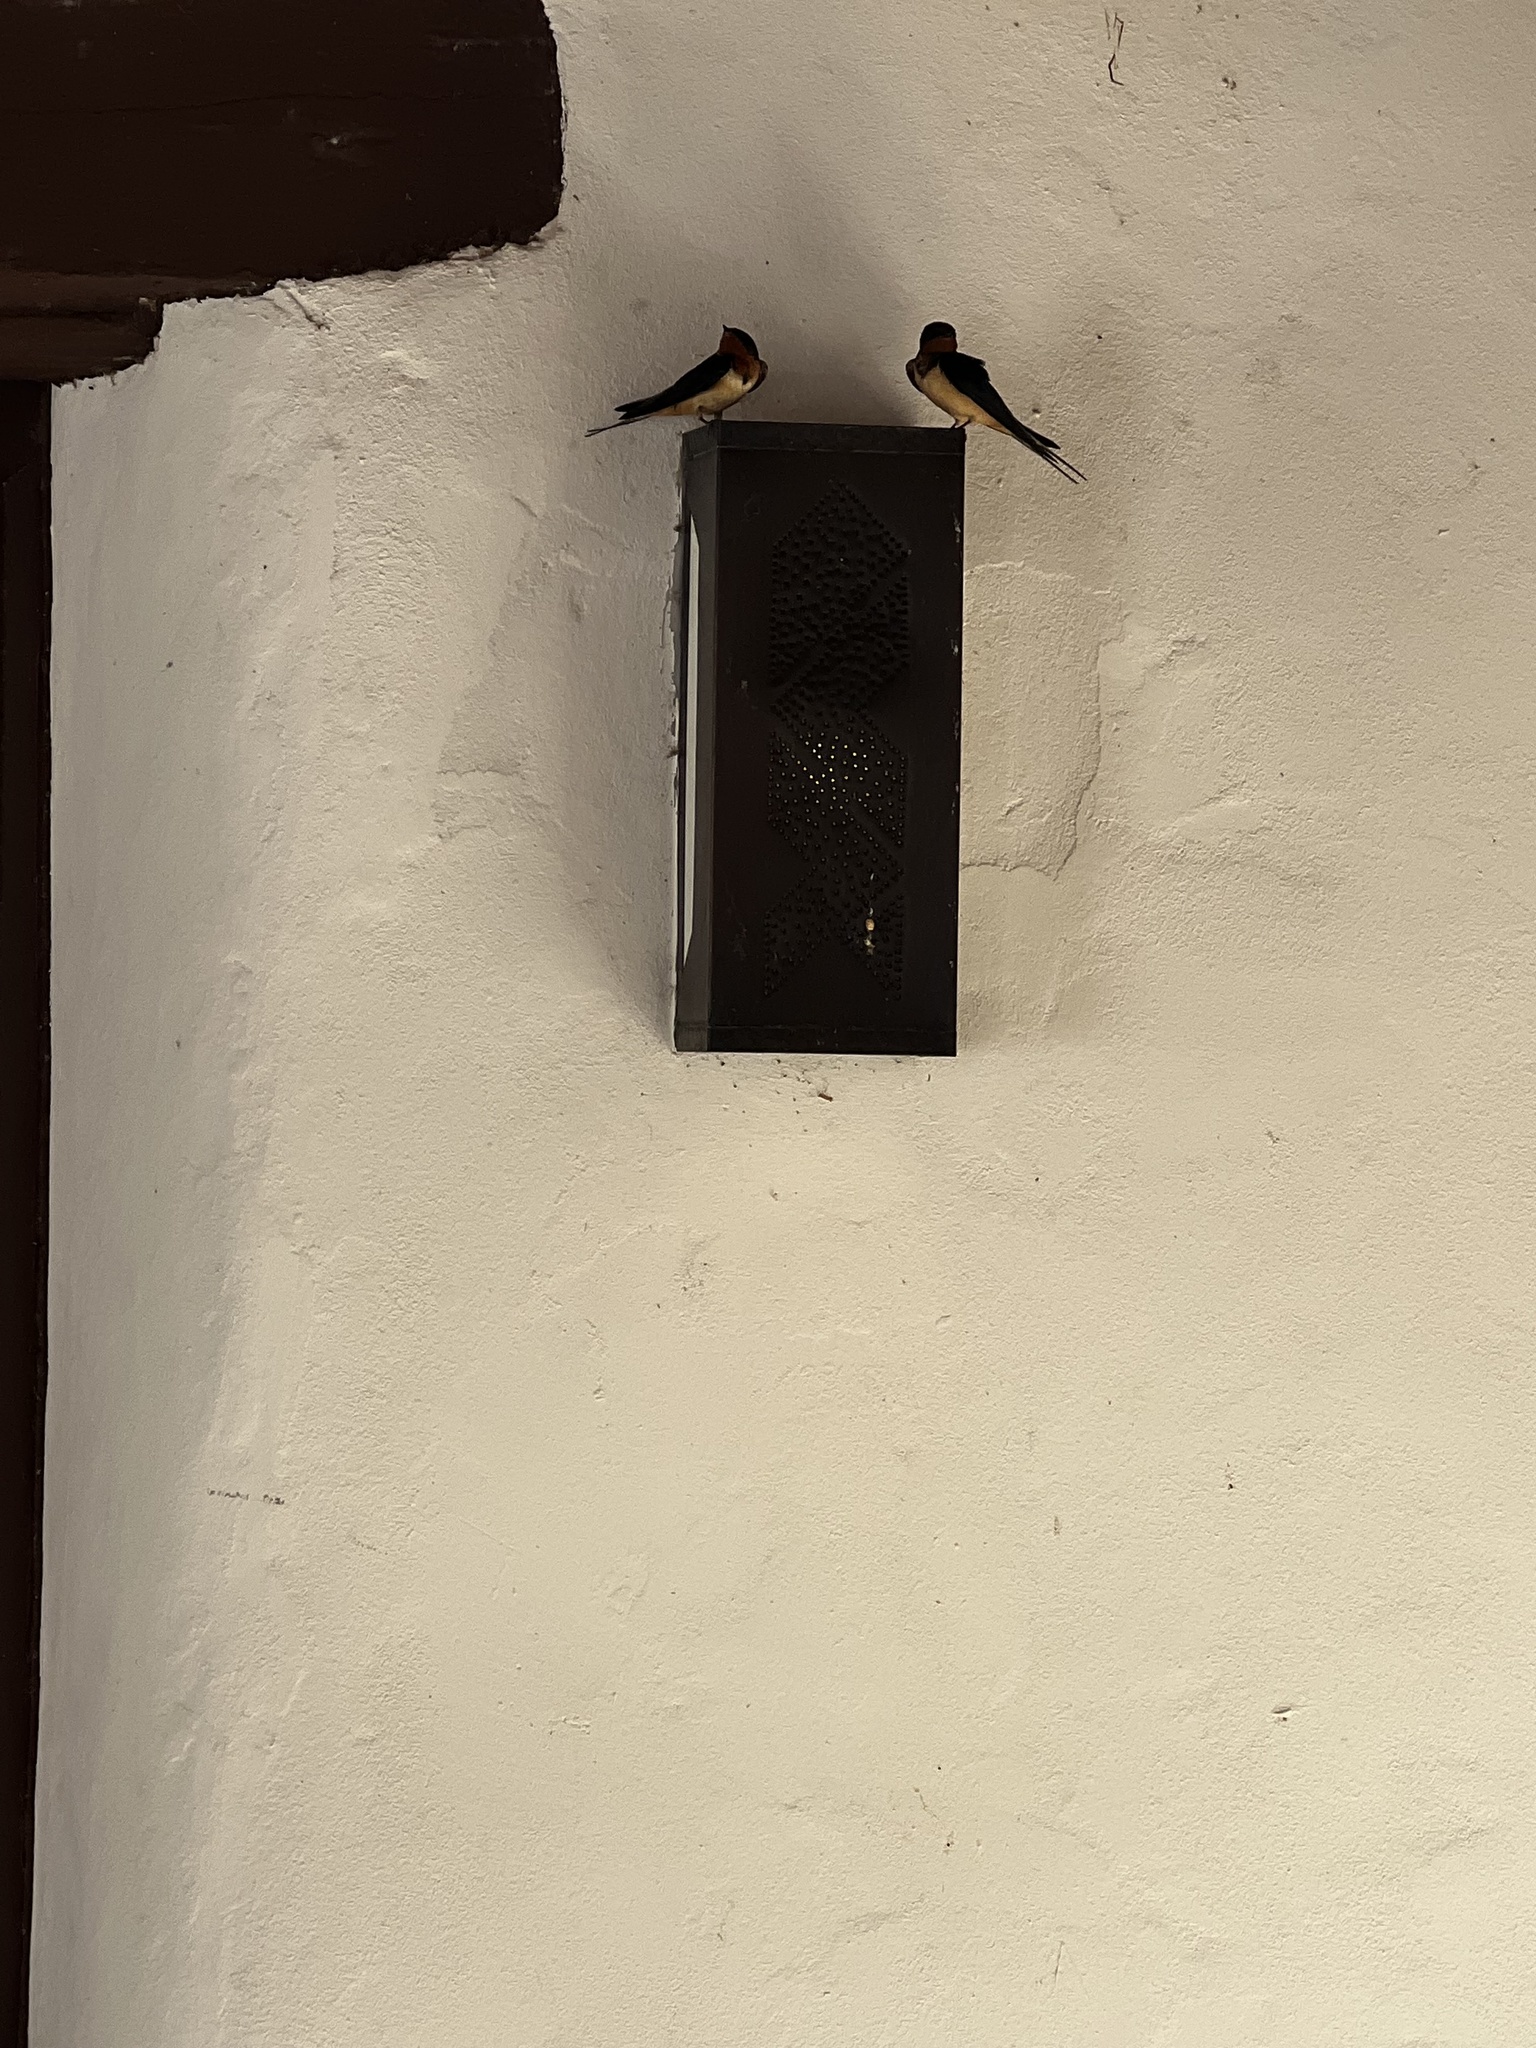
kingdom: Animalia
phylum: Chordata
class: Aves
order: Passeriformes
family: Hirundinidae
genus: Hirundo
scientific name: Hirundo rustica
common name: Barn swallow
